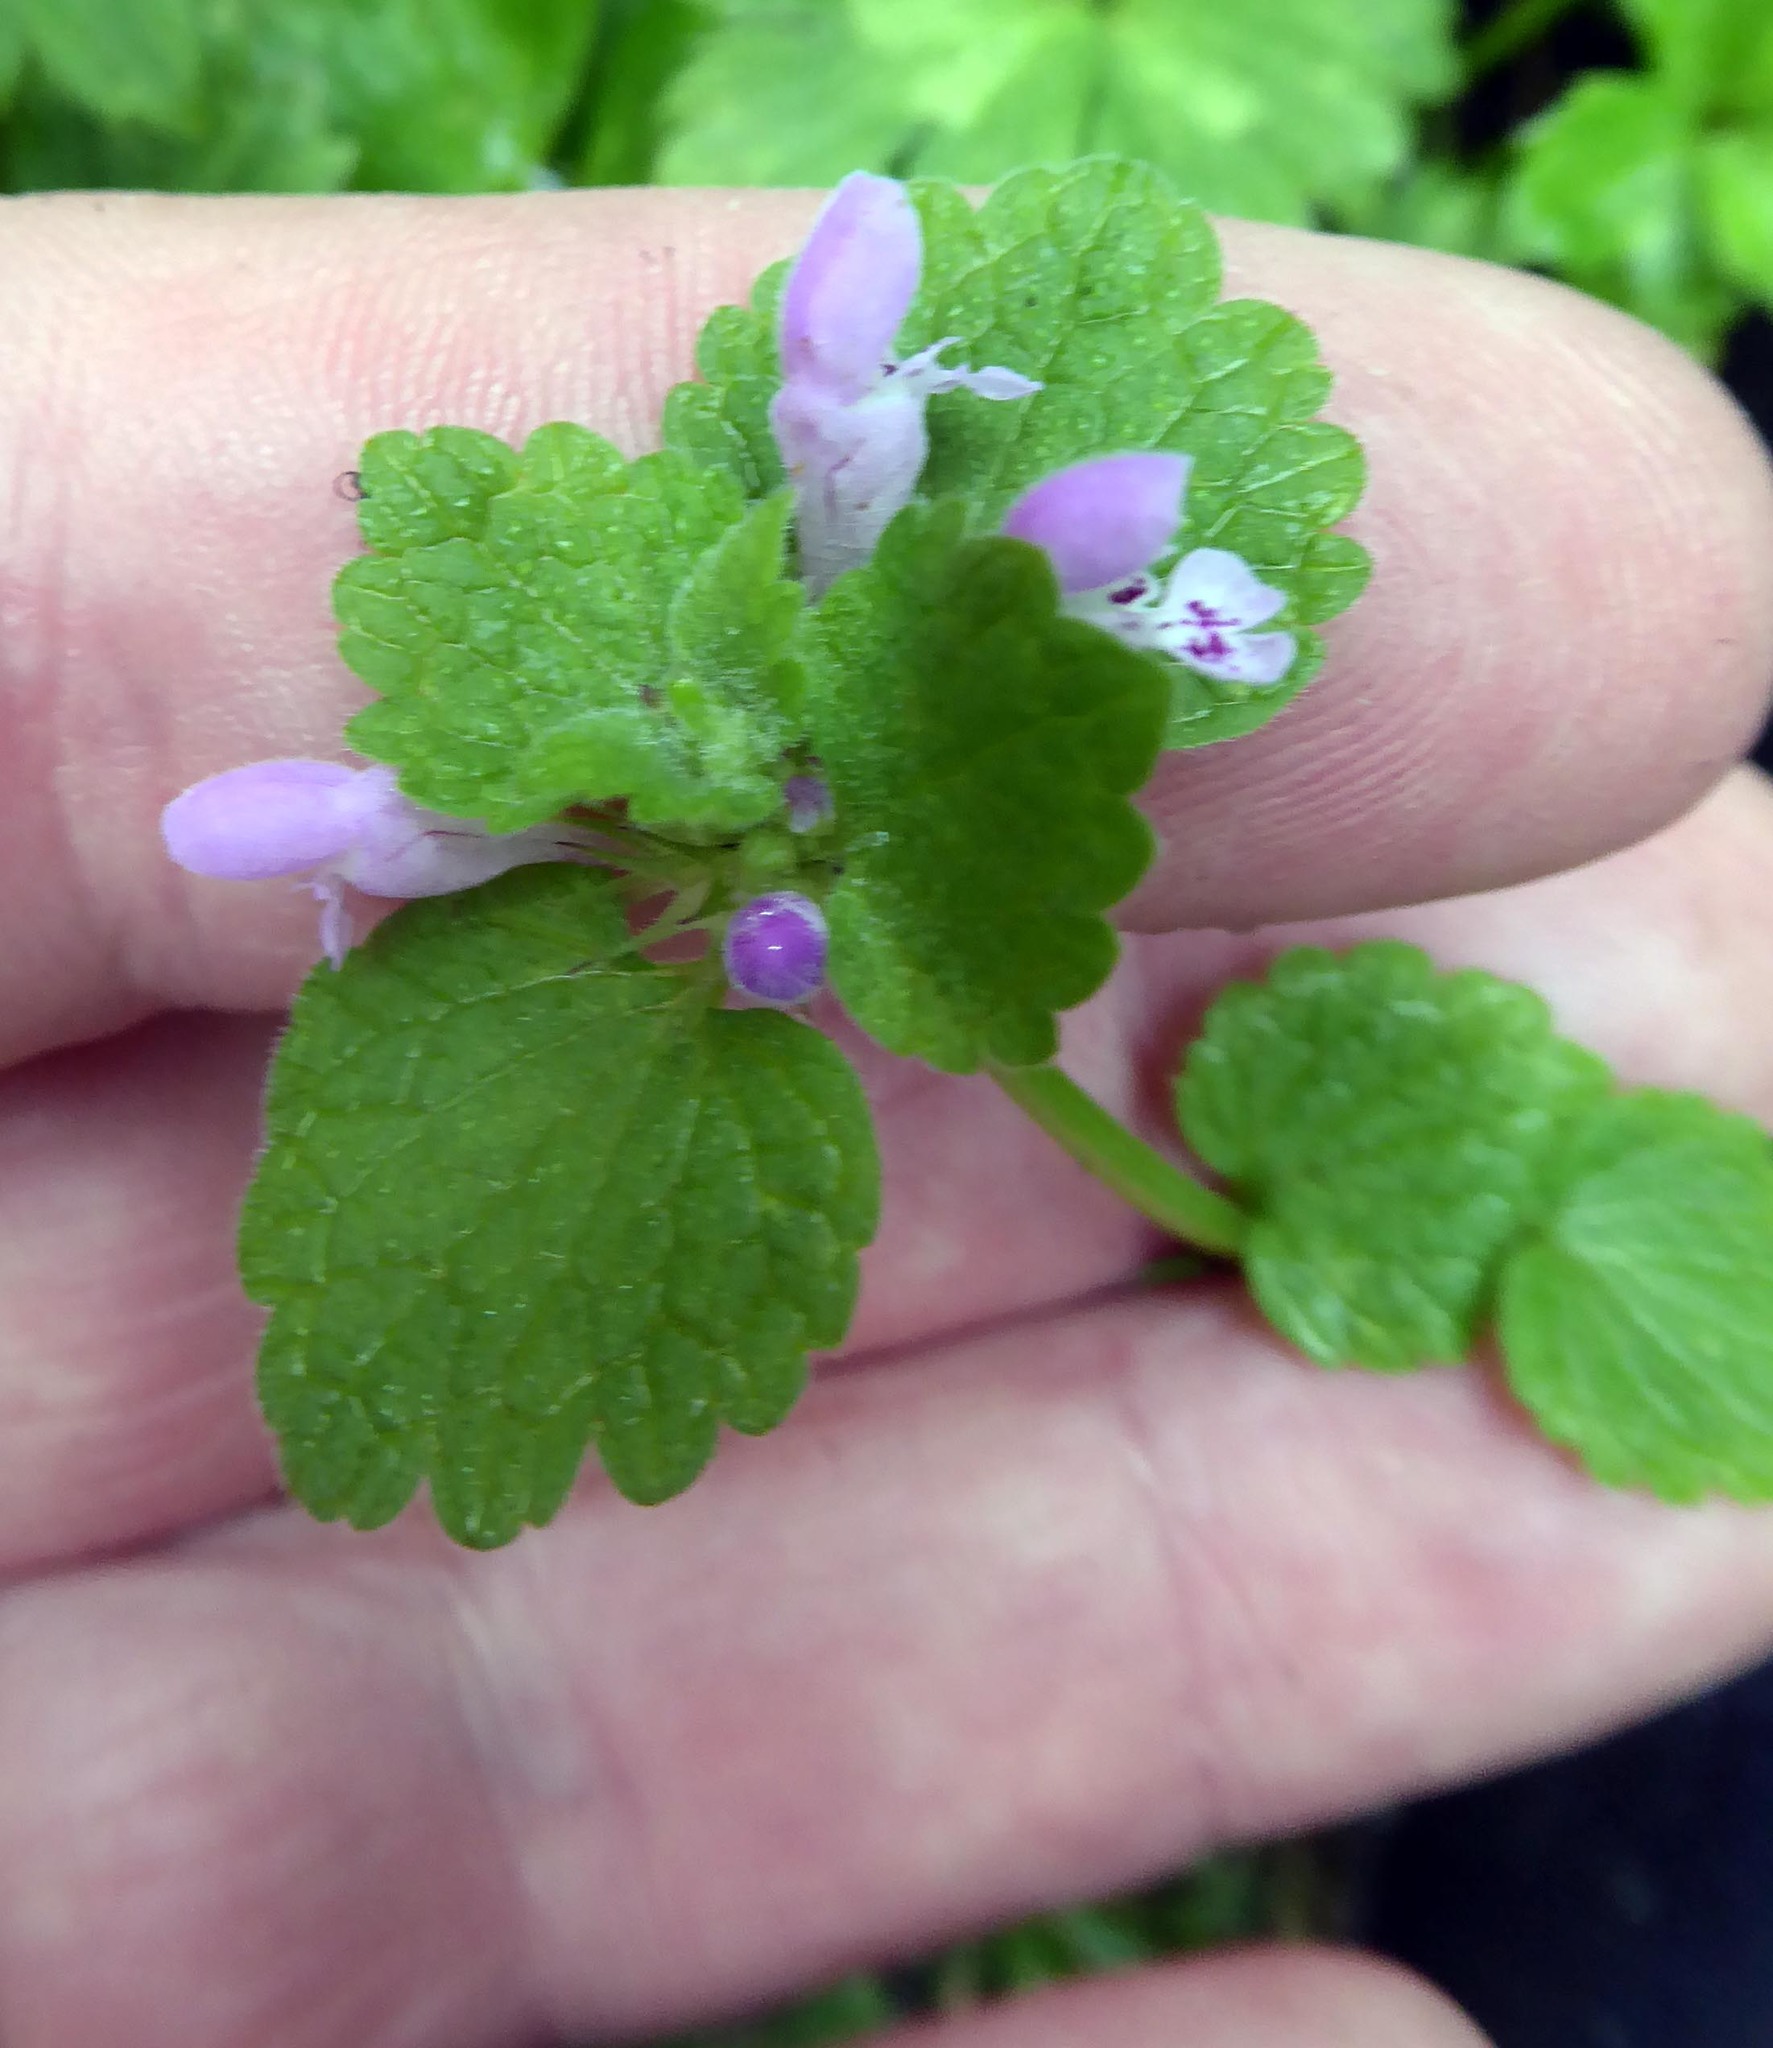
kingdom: Plantae
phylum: Tracheophyta
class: Magnoliopsida
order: Lamiales
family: Lamiaceae
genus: Lamium
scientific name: Lamium purpureum
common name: Red dead-nettle
